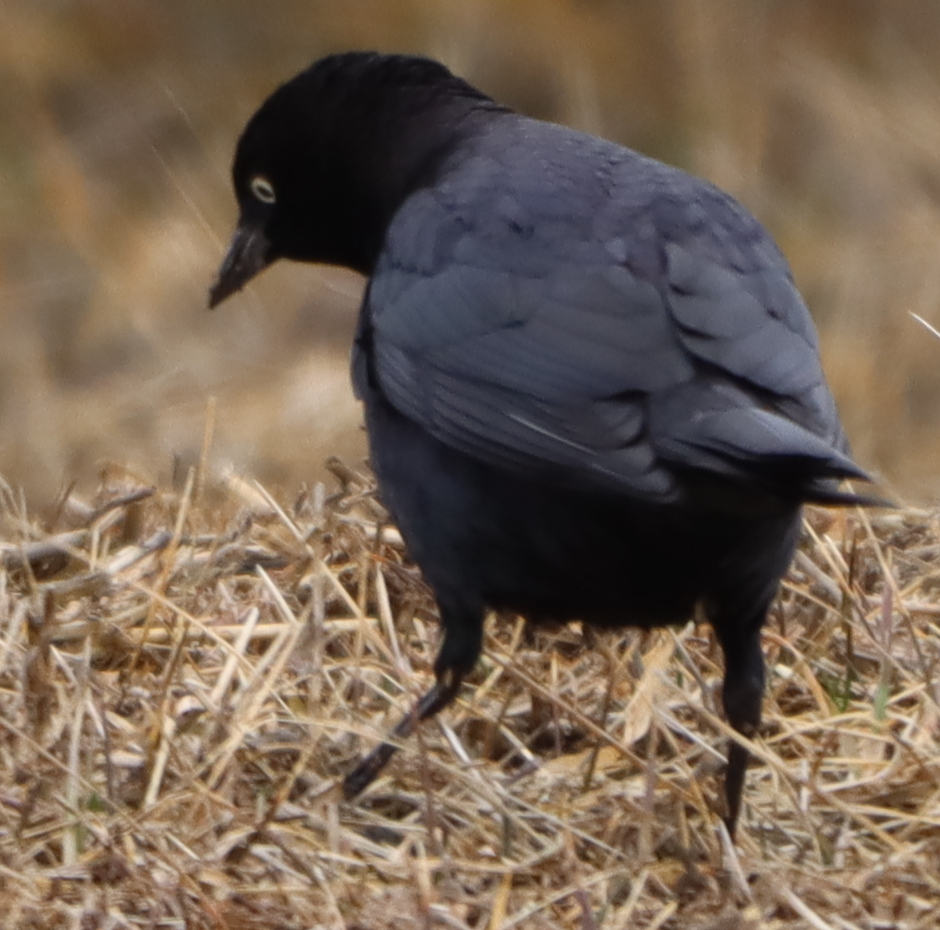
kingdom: Animalia
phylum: Chordata
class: Aves
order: Passeriformes
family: Icteridae
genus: Euphagus
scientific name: Euphagus cyanocephalus
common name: Brewer's blackbird
